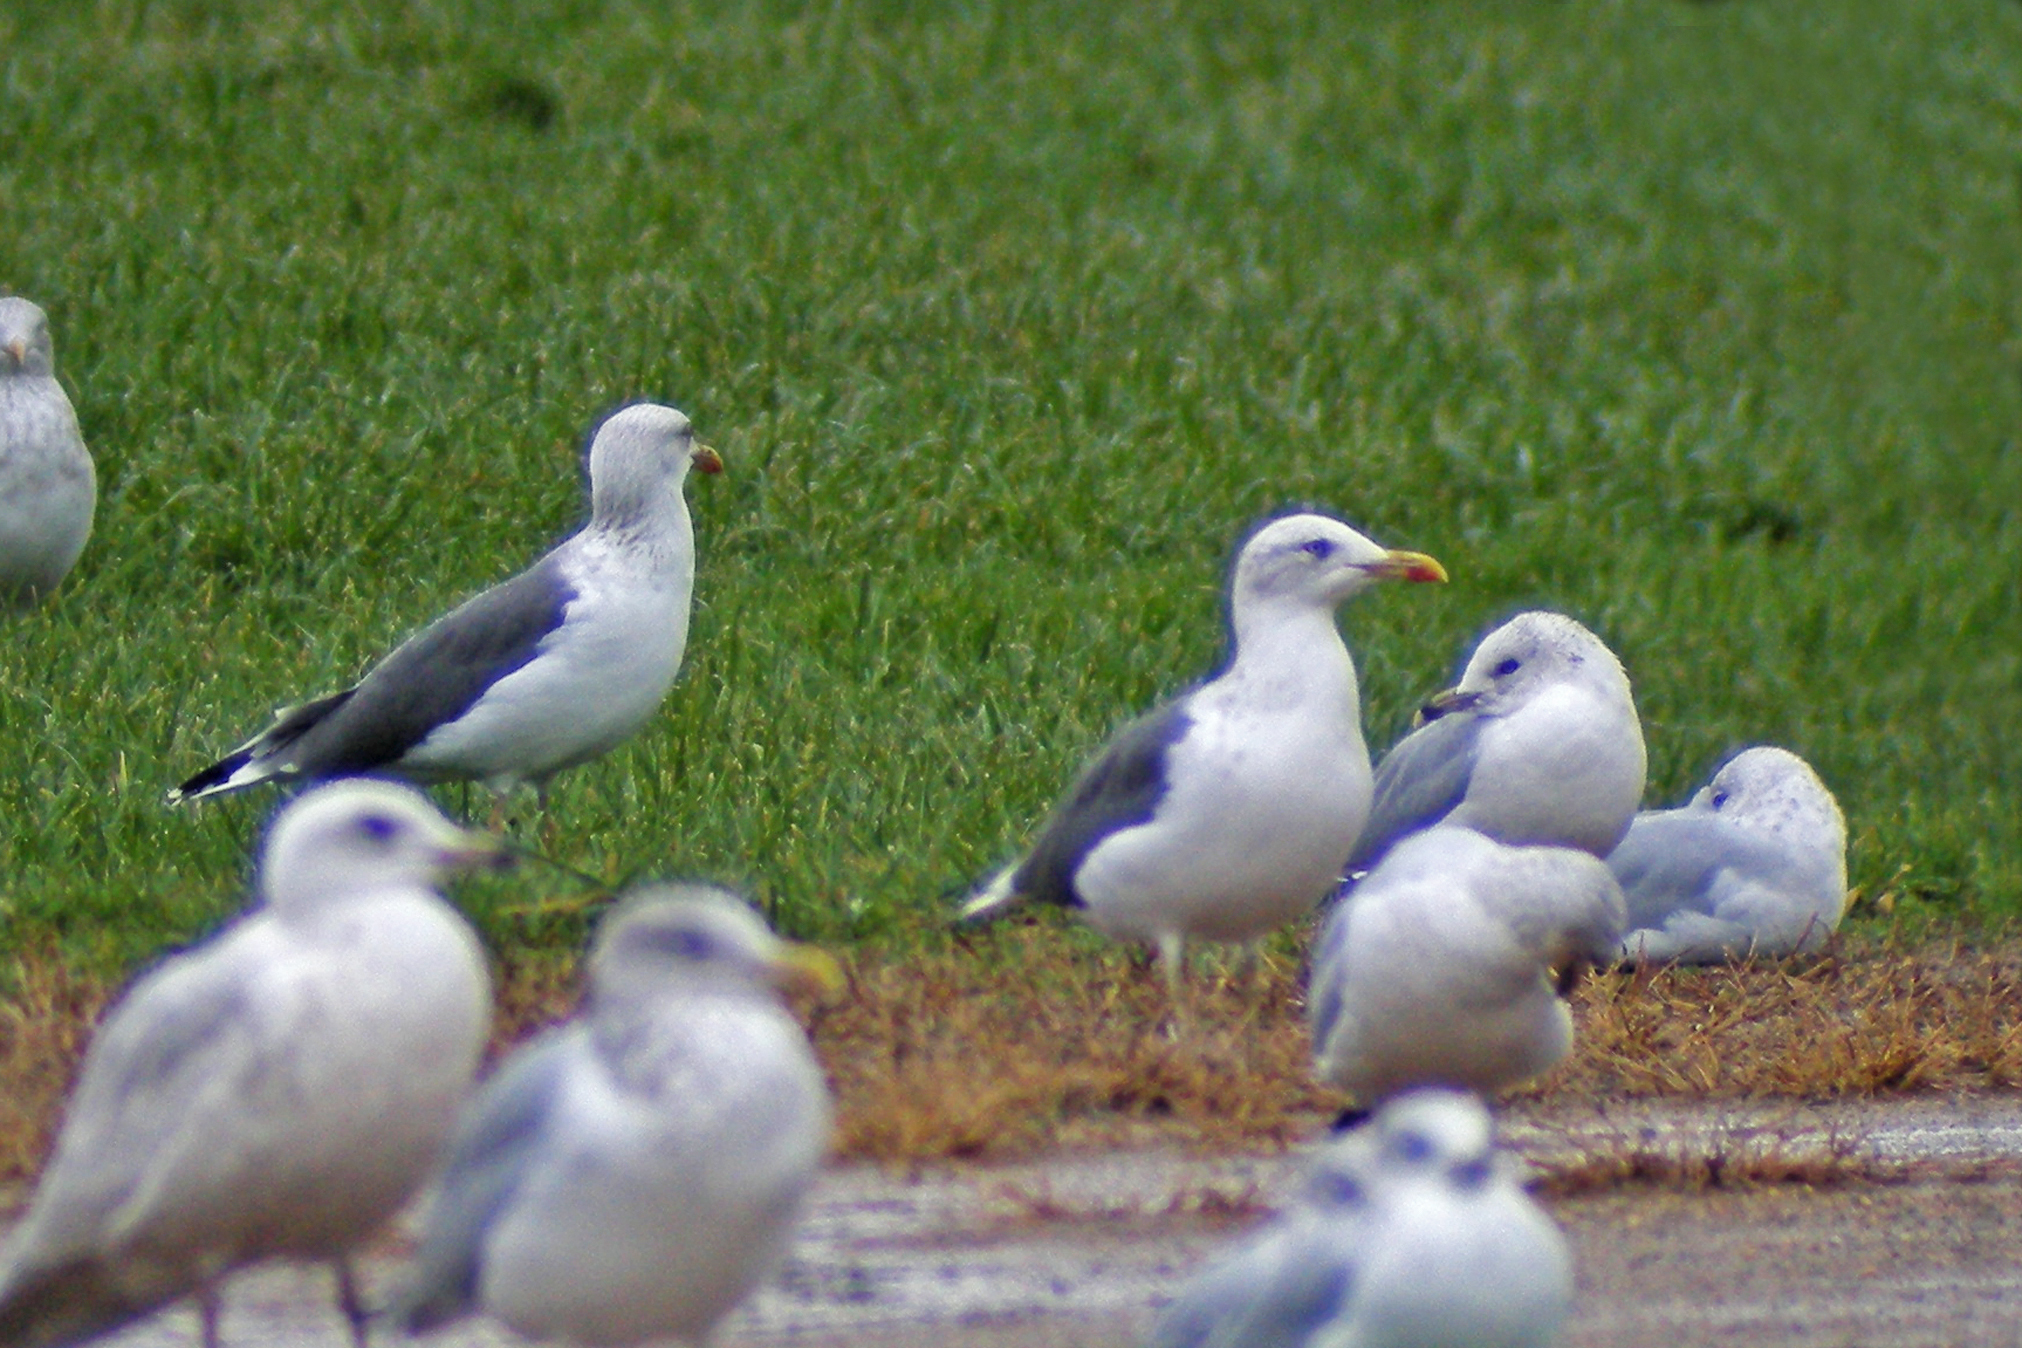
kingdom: Animalia
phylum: Chordata
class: Aves
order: Charadriiformes
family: Laridae
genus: Larus
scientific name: Larus fuscus
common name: Lesser black-backed gull
